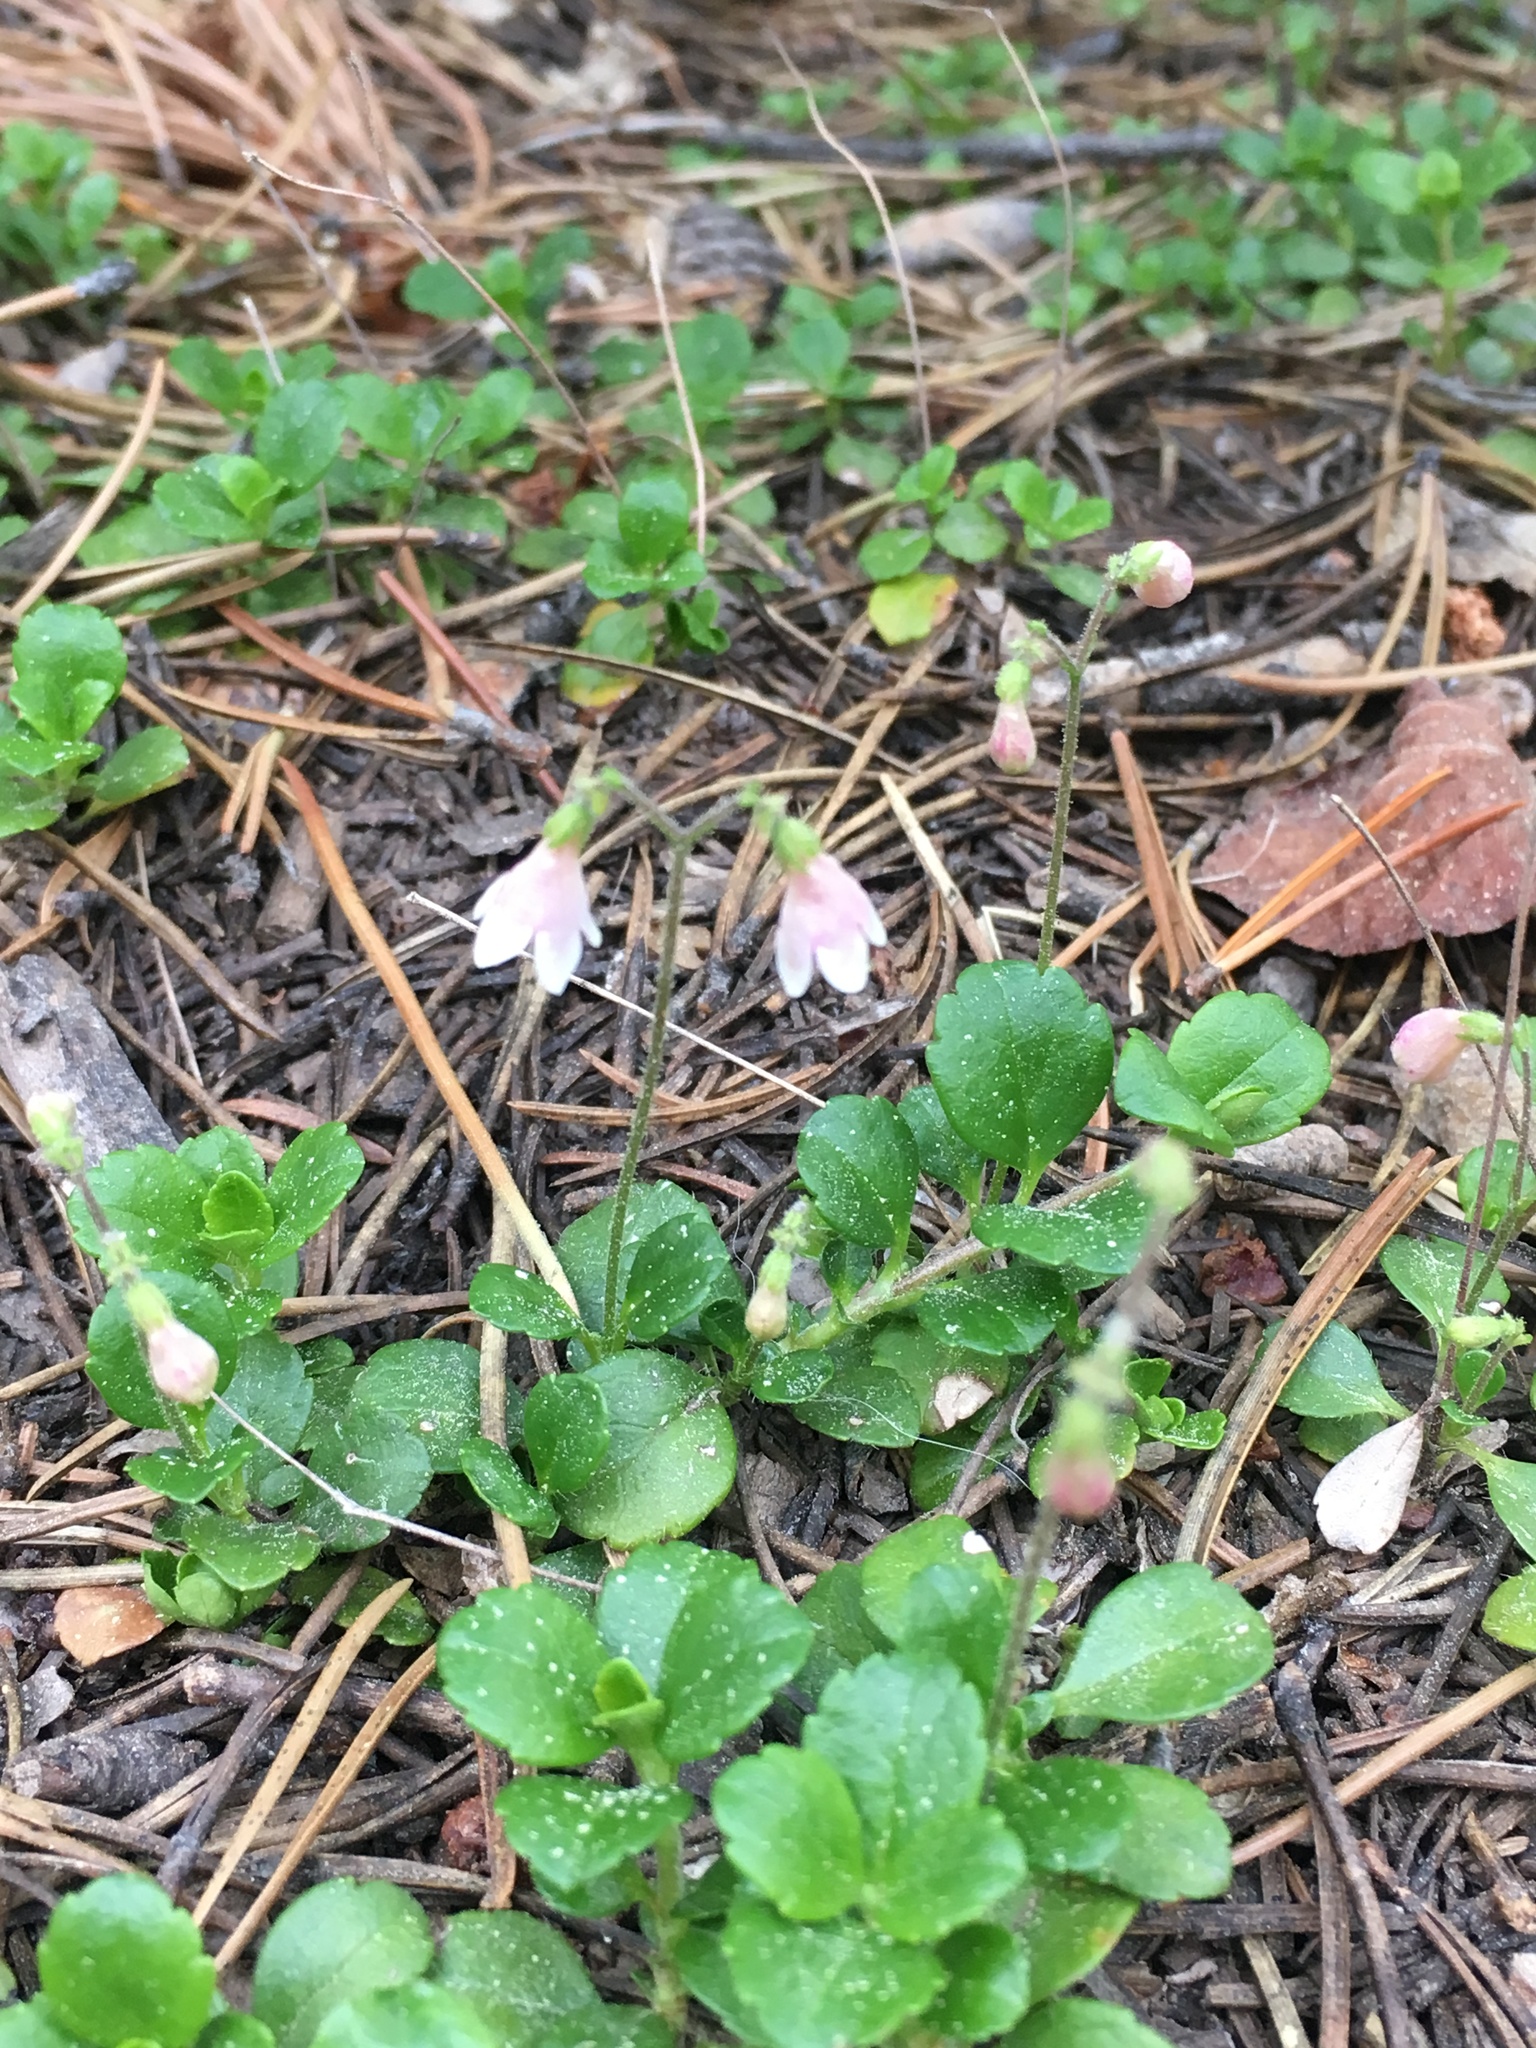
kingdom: Plantae
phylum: Tracheophyta
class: Magnoliopsida
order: Dipsacales
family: Caprifoliaceae
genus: Linnaea
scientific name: Linnaea borealis
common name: Twinflower
